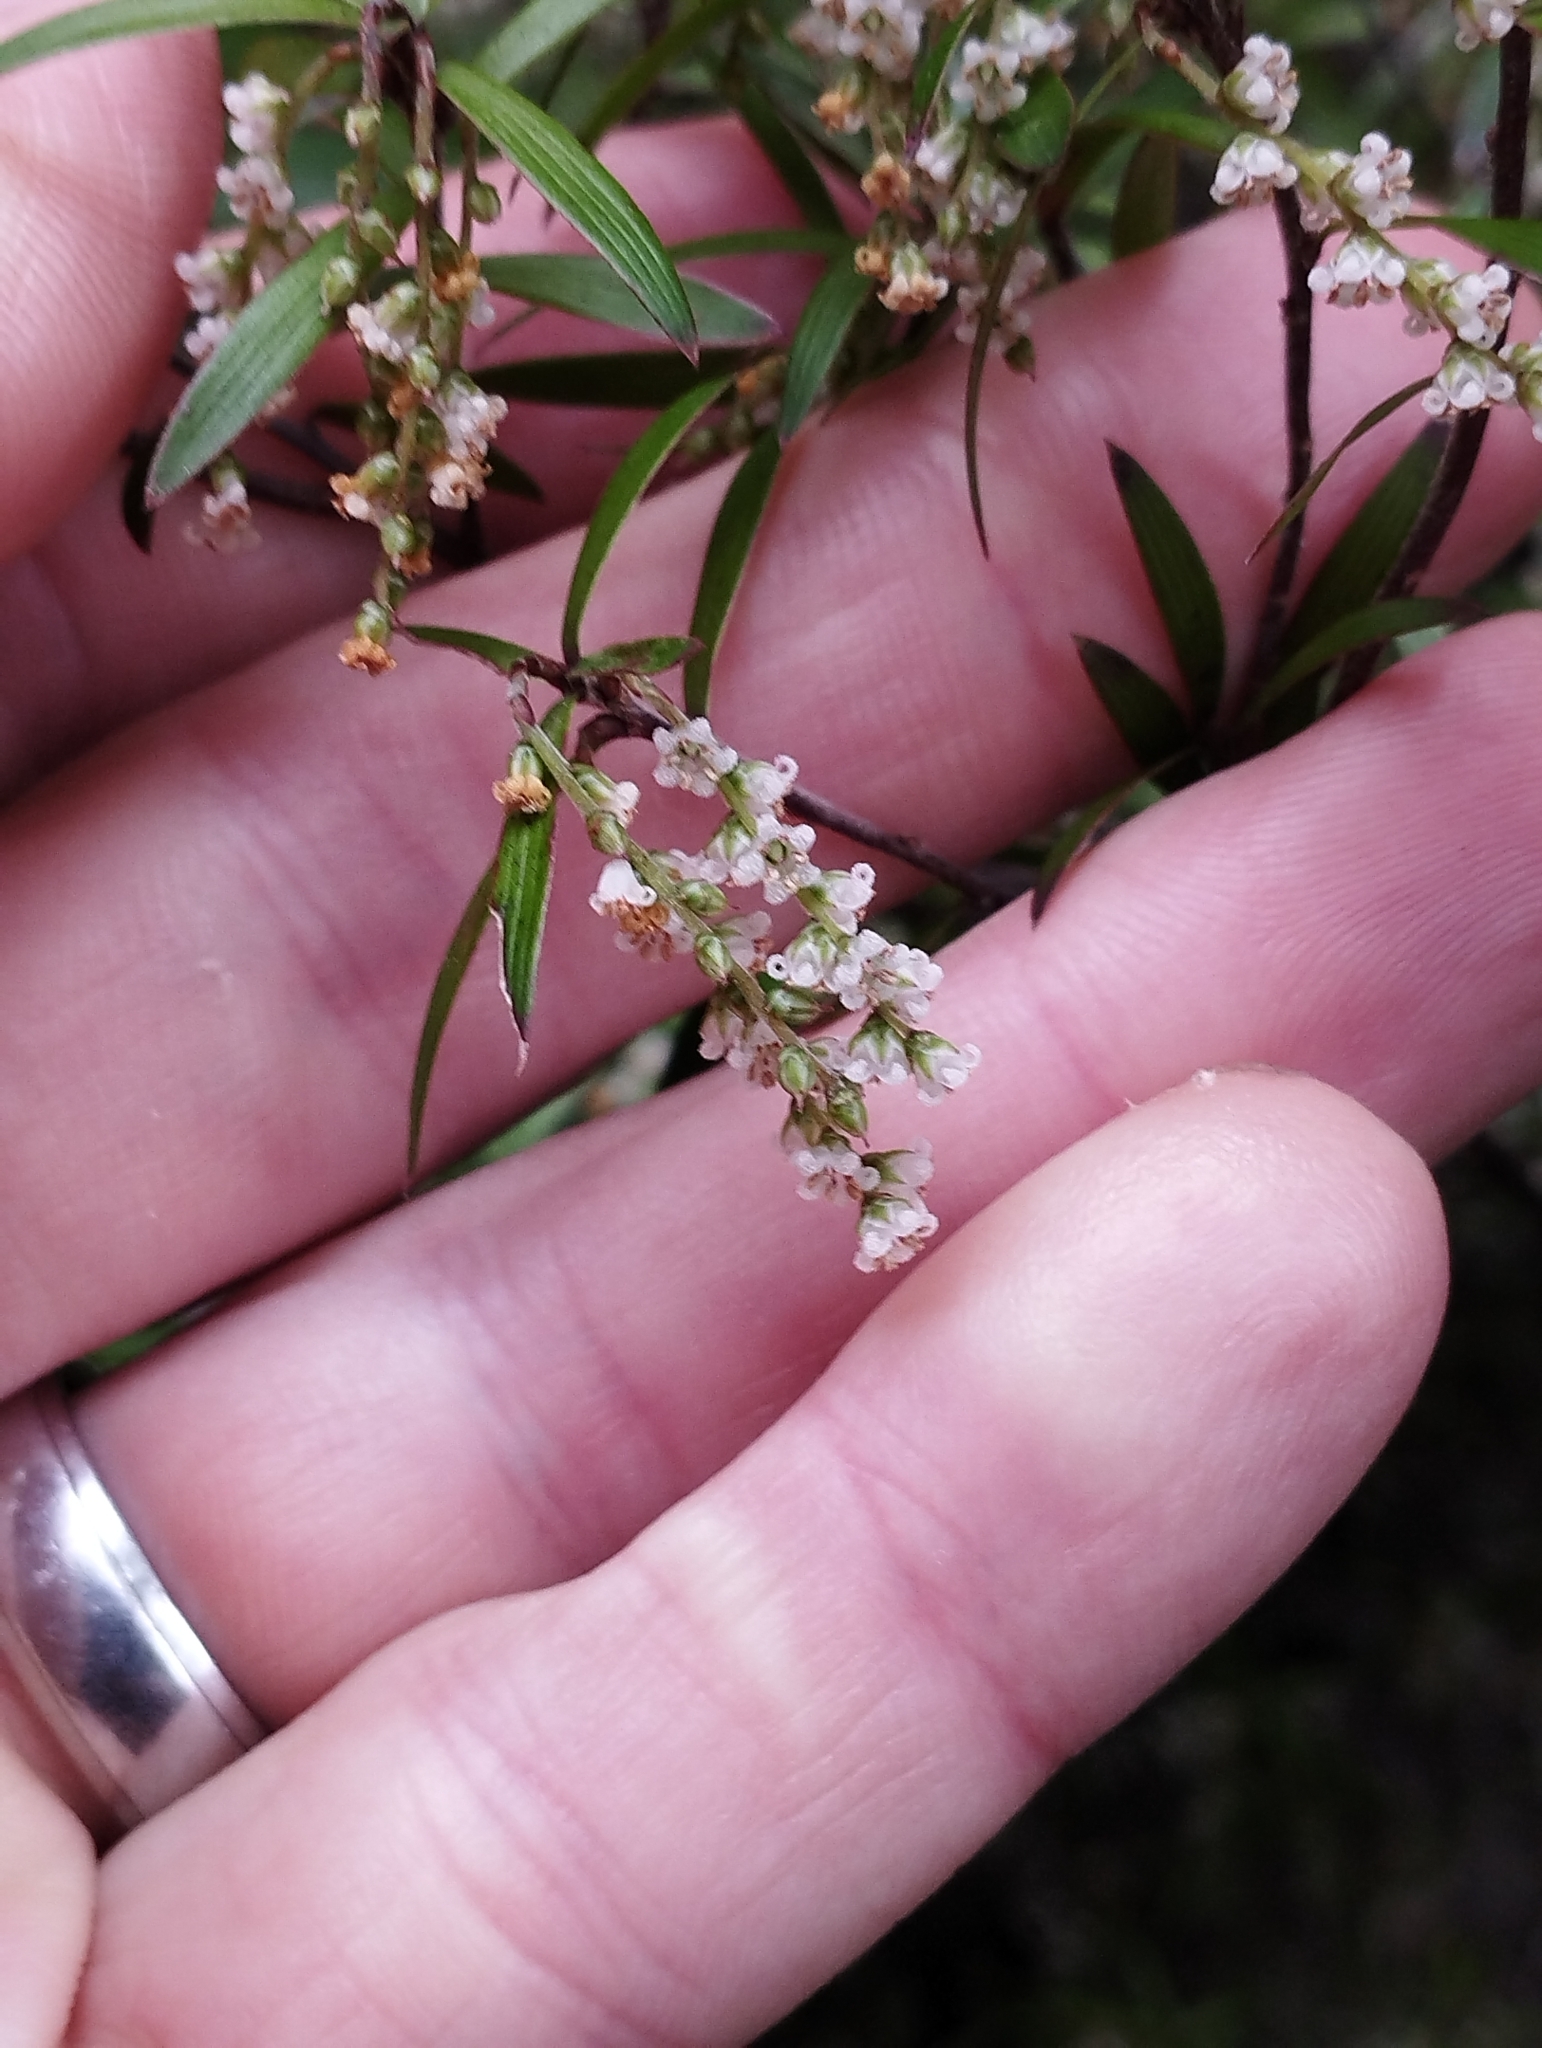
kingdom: Plantae
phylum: Tracheophyta
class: Magnoliopsida
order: Ericales
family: Ericaceae
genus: Leucopogon
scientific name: Leucopogon fasciculatus
